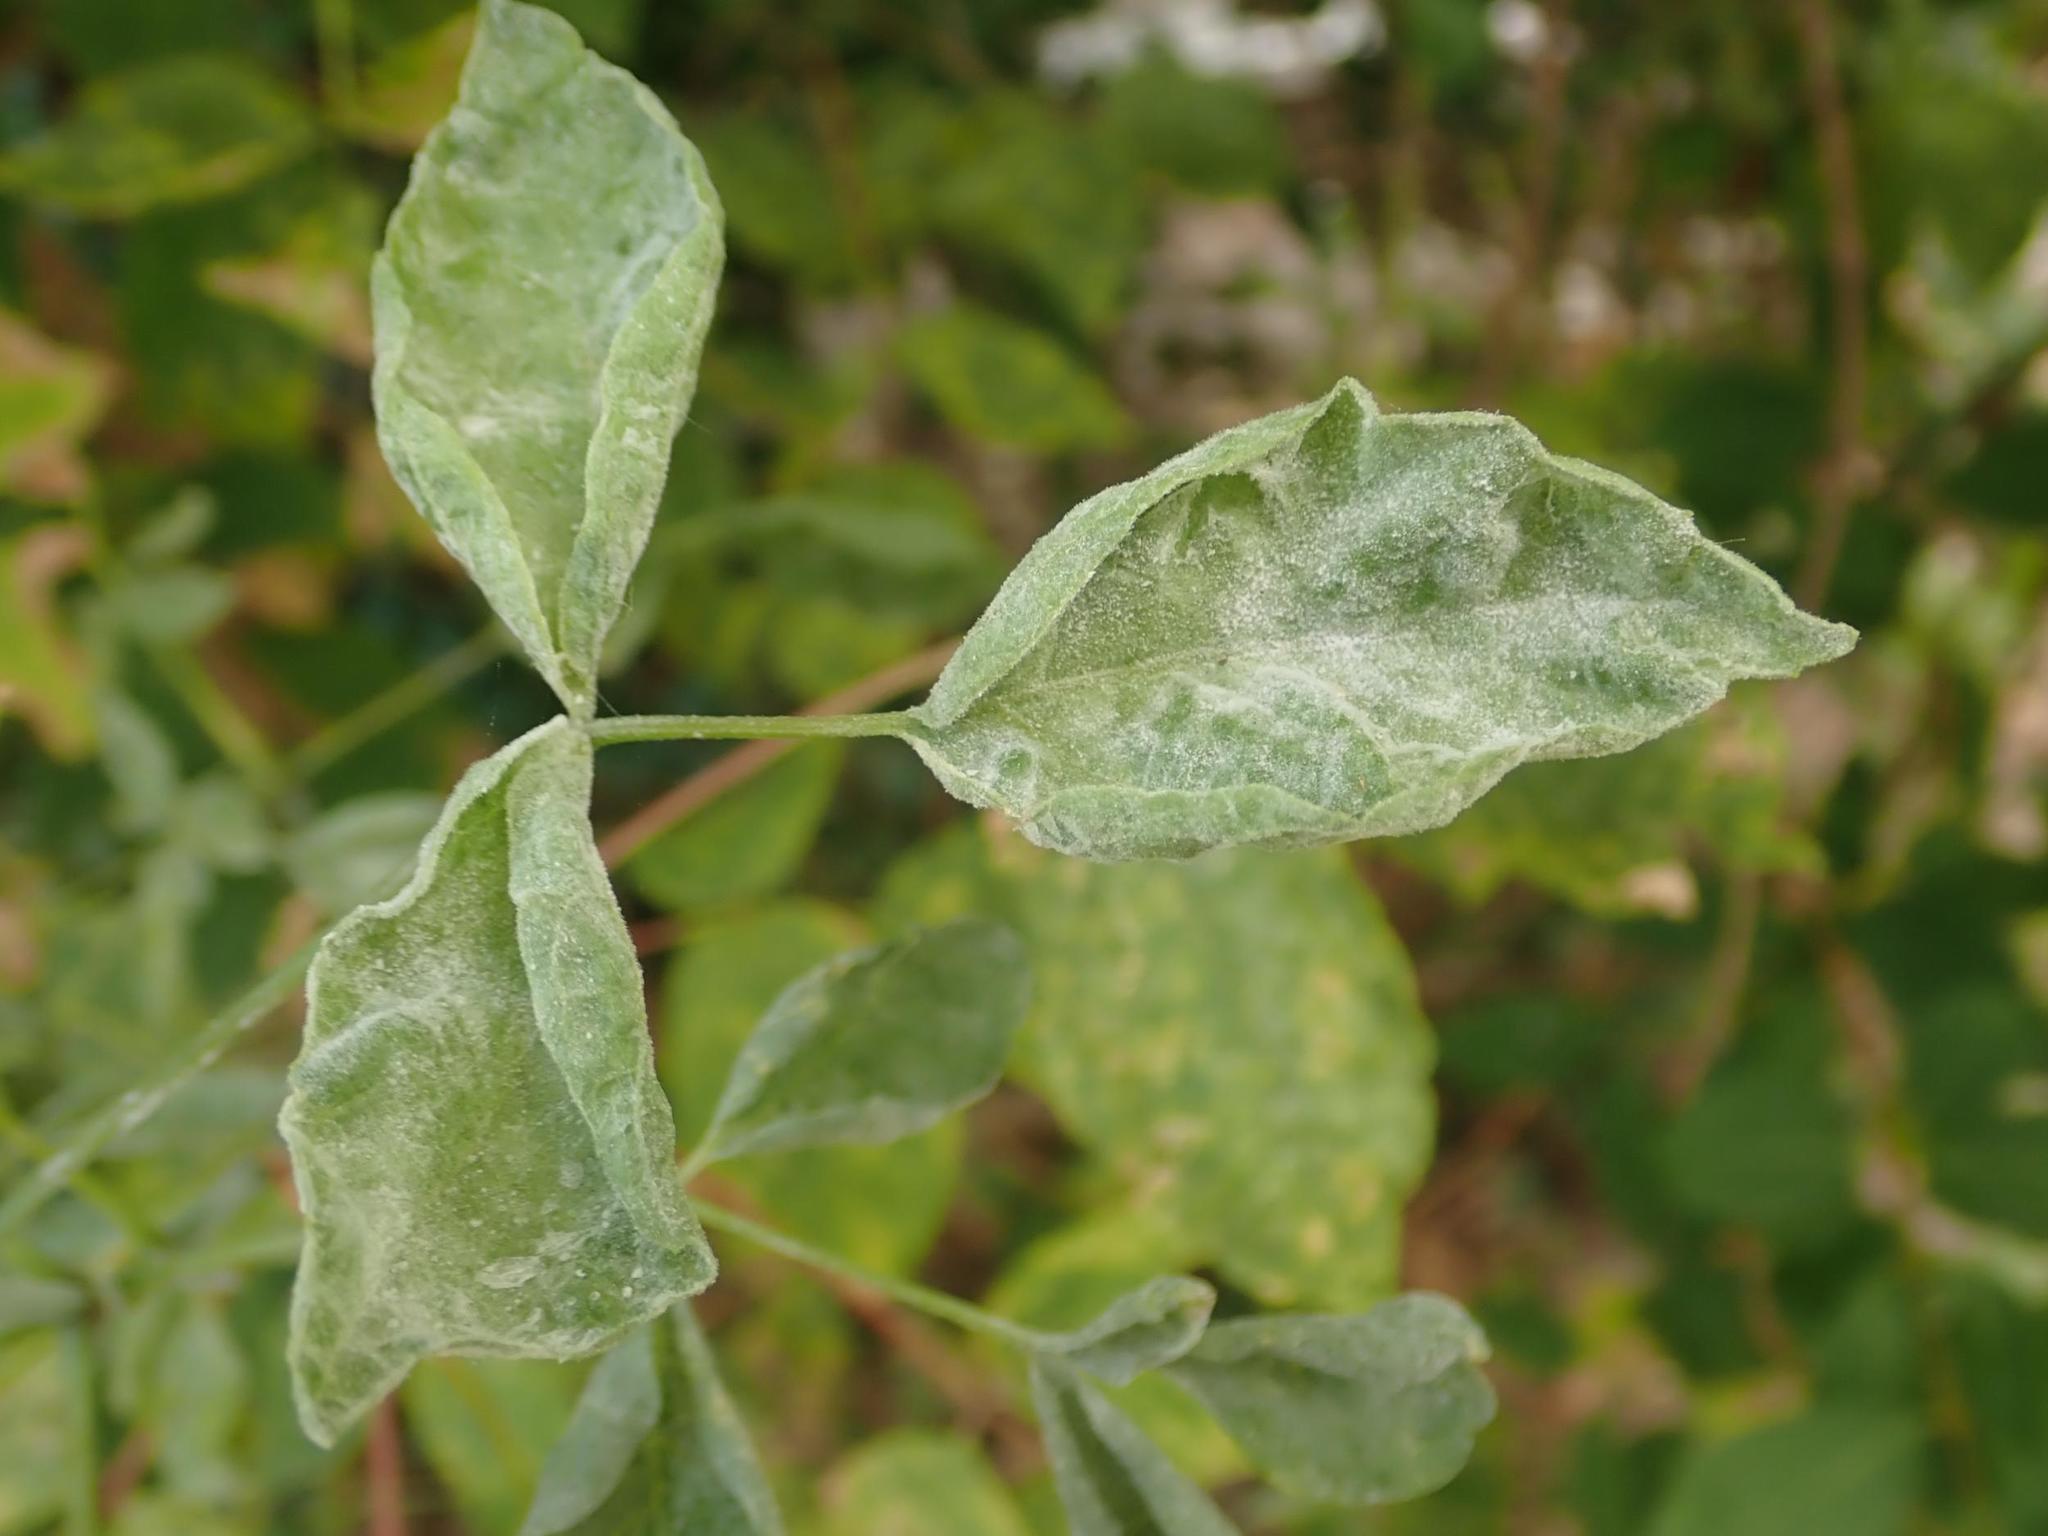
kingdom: Fungi
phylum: Ascomycota
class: Leotiomycetes
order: Helotiales
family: Erysiphaceae
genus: Sawadaea
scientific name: Sawadaea bicornis
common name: Maple mildew
